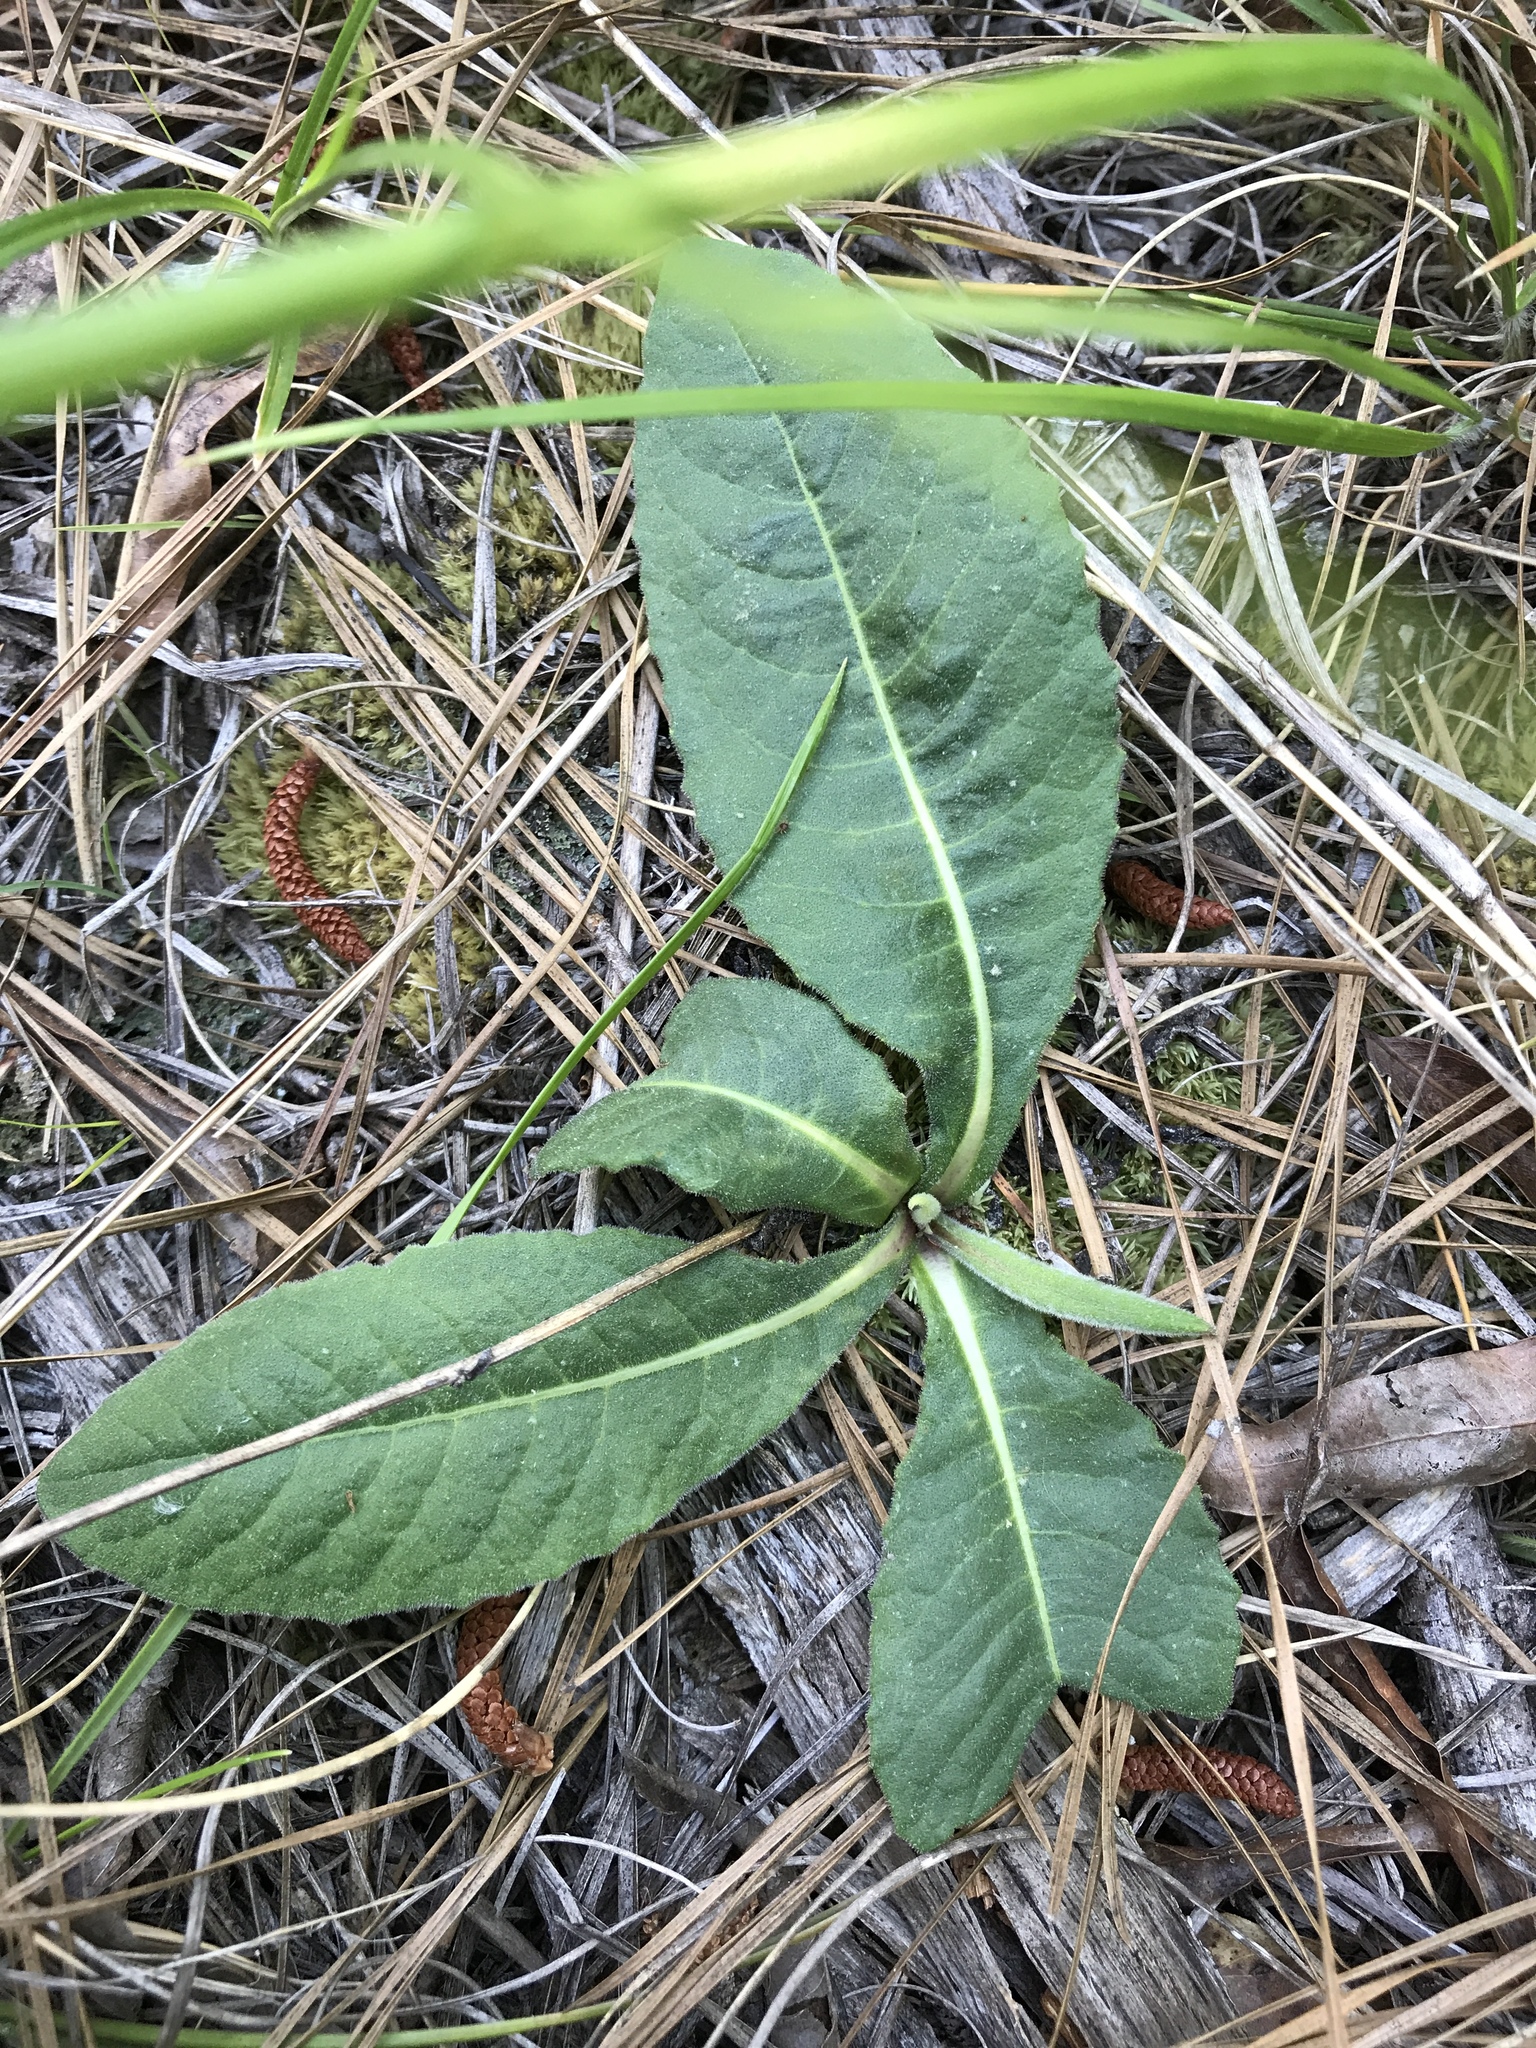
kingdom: Plantae
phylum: Tracheophyta
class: Magnoliopsida
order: Asterales
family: Asteraceae
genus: Vernonia
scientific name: Vernonia acaulis
